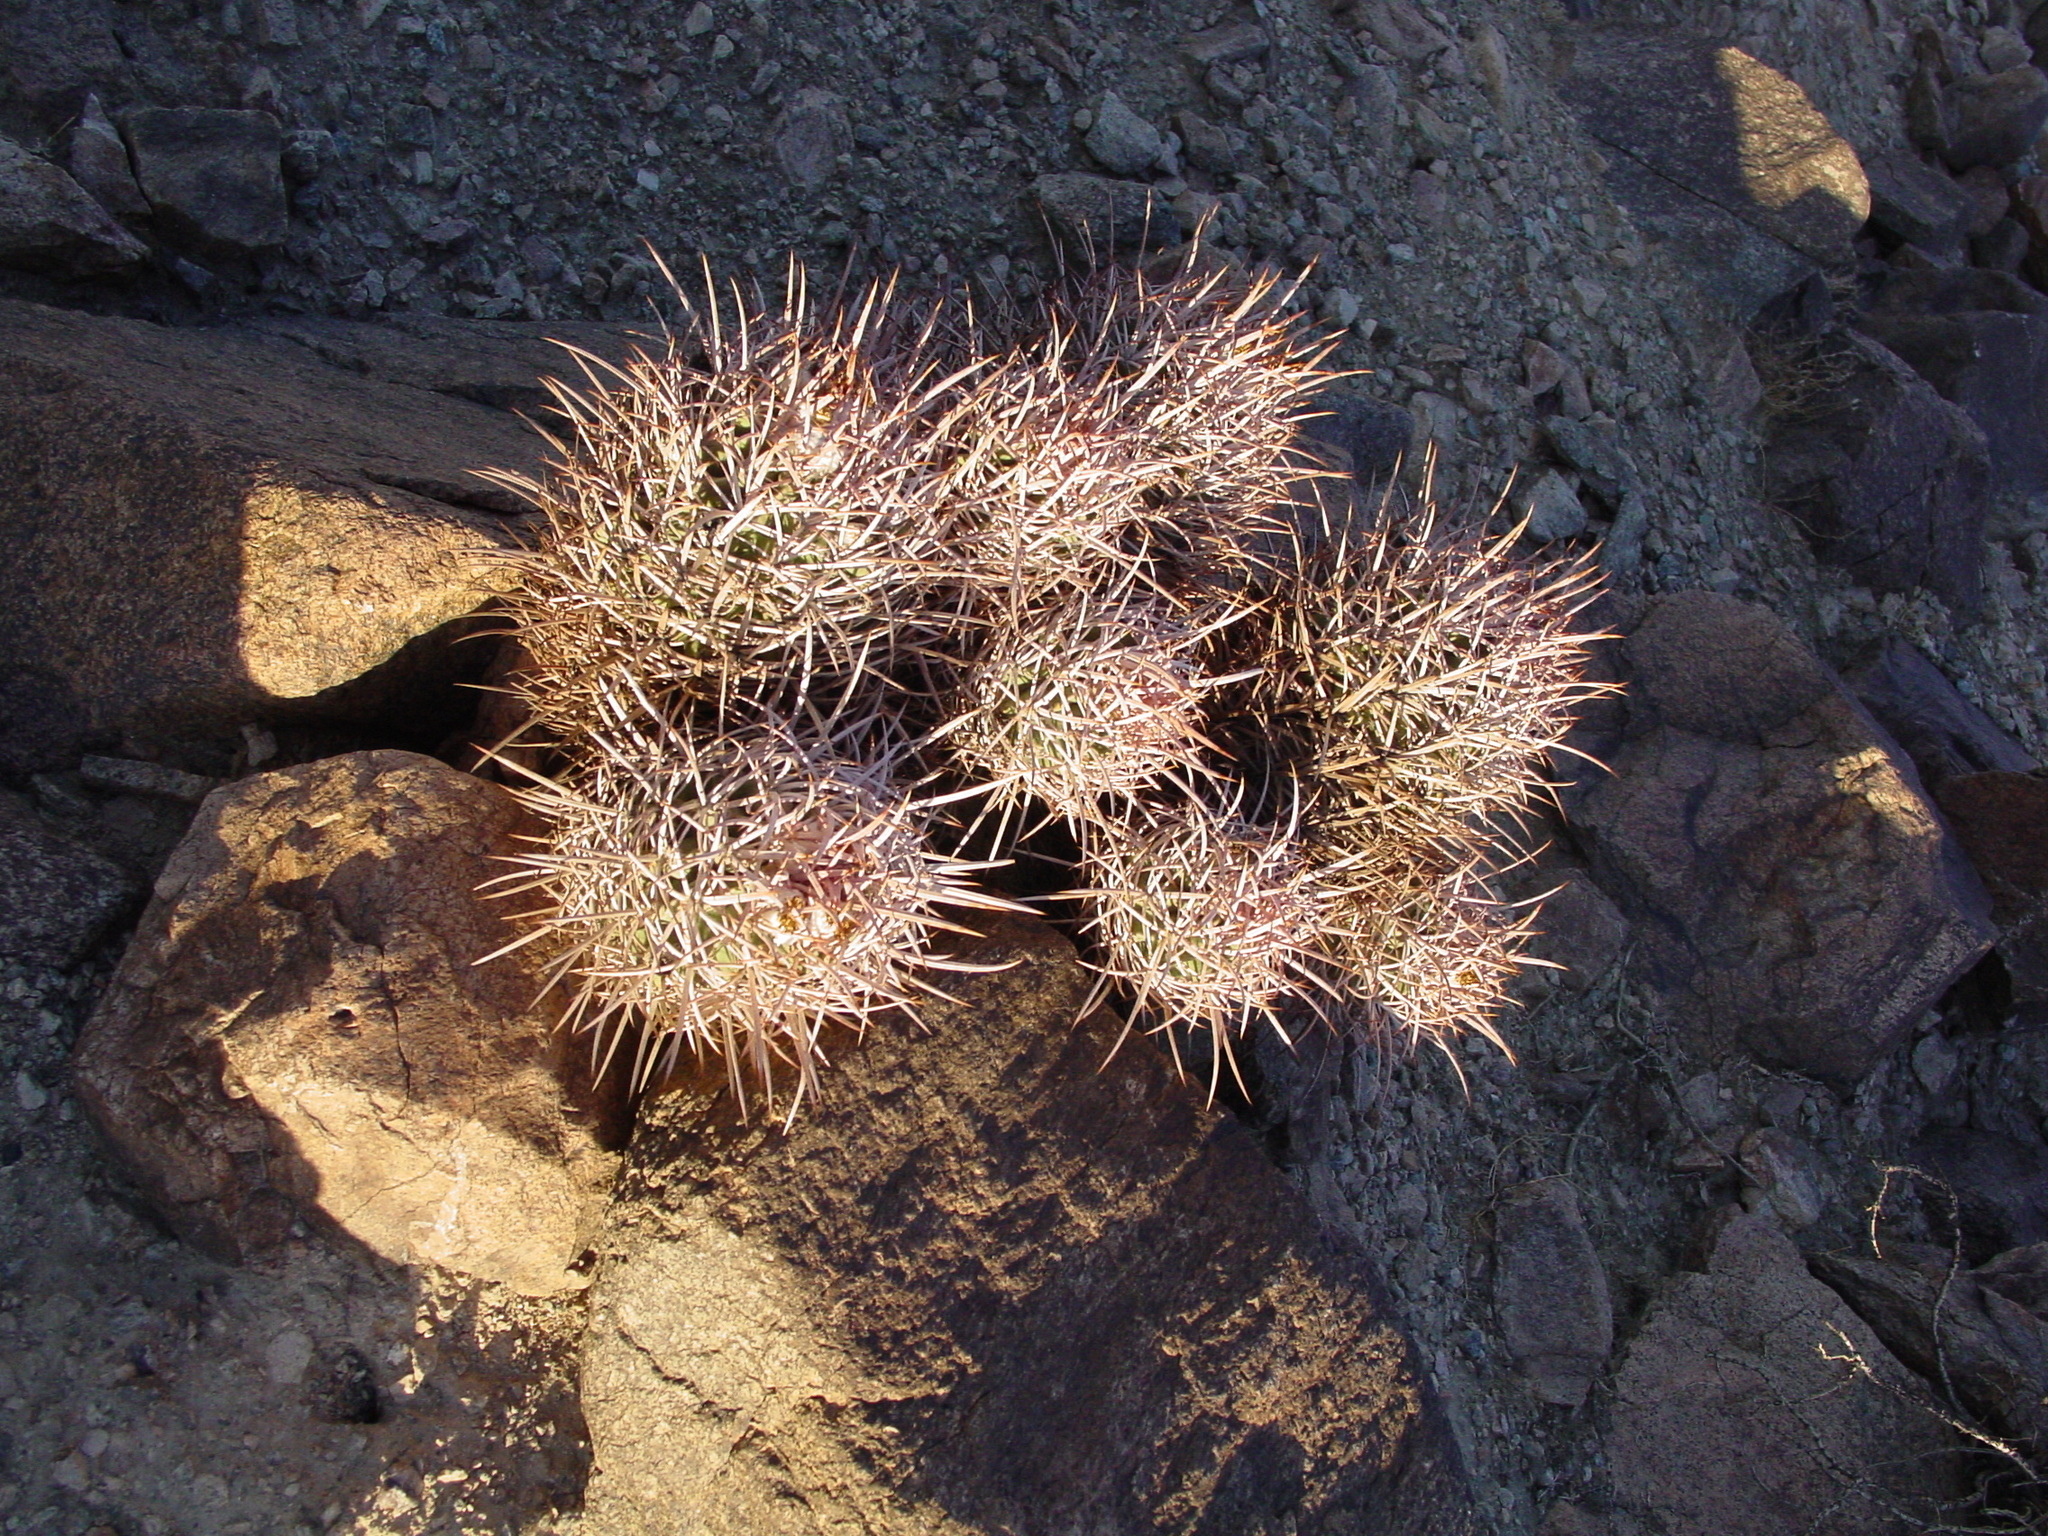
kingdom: Plantae
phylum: Tracheophyta
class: Magnoliopsida
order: Caryophyllales
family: Cactaceae
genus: Echinocactus
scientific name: Echinocactus polycephalus
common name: Cottontop cactus
